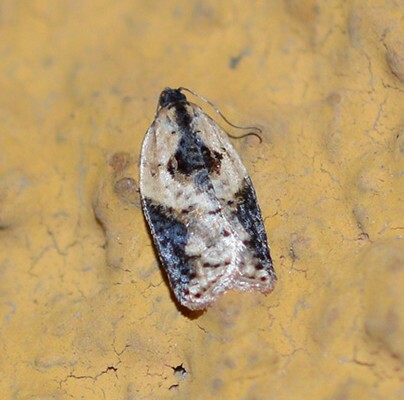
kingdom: Animalia
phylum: Arthropoda
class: Insecta
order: Lepidoptera
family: Tortricidae
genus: Acleris
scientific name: Acleris variegana
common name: Garden rose tortrix
